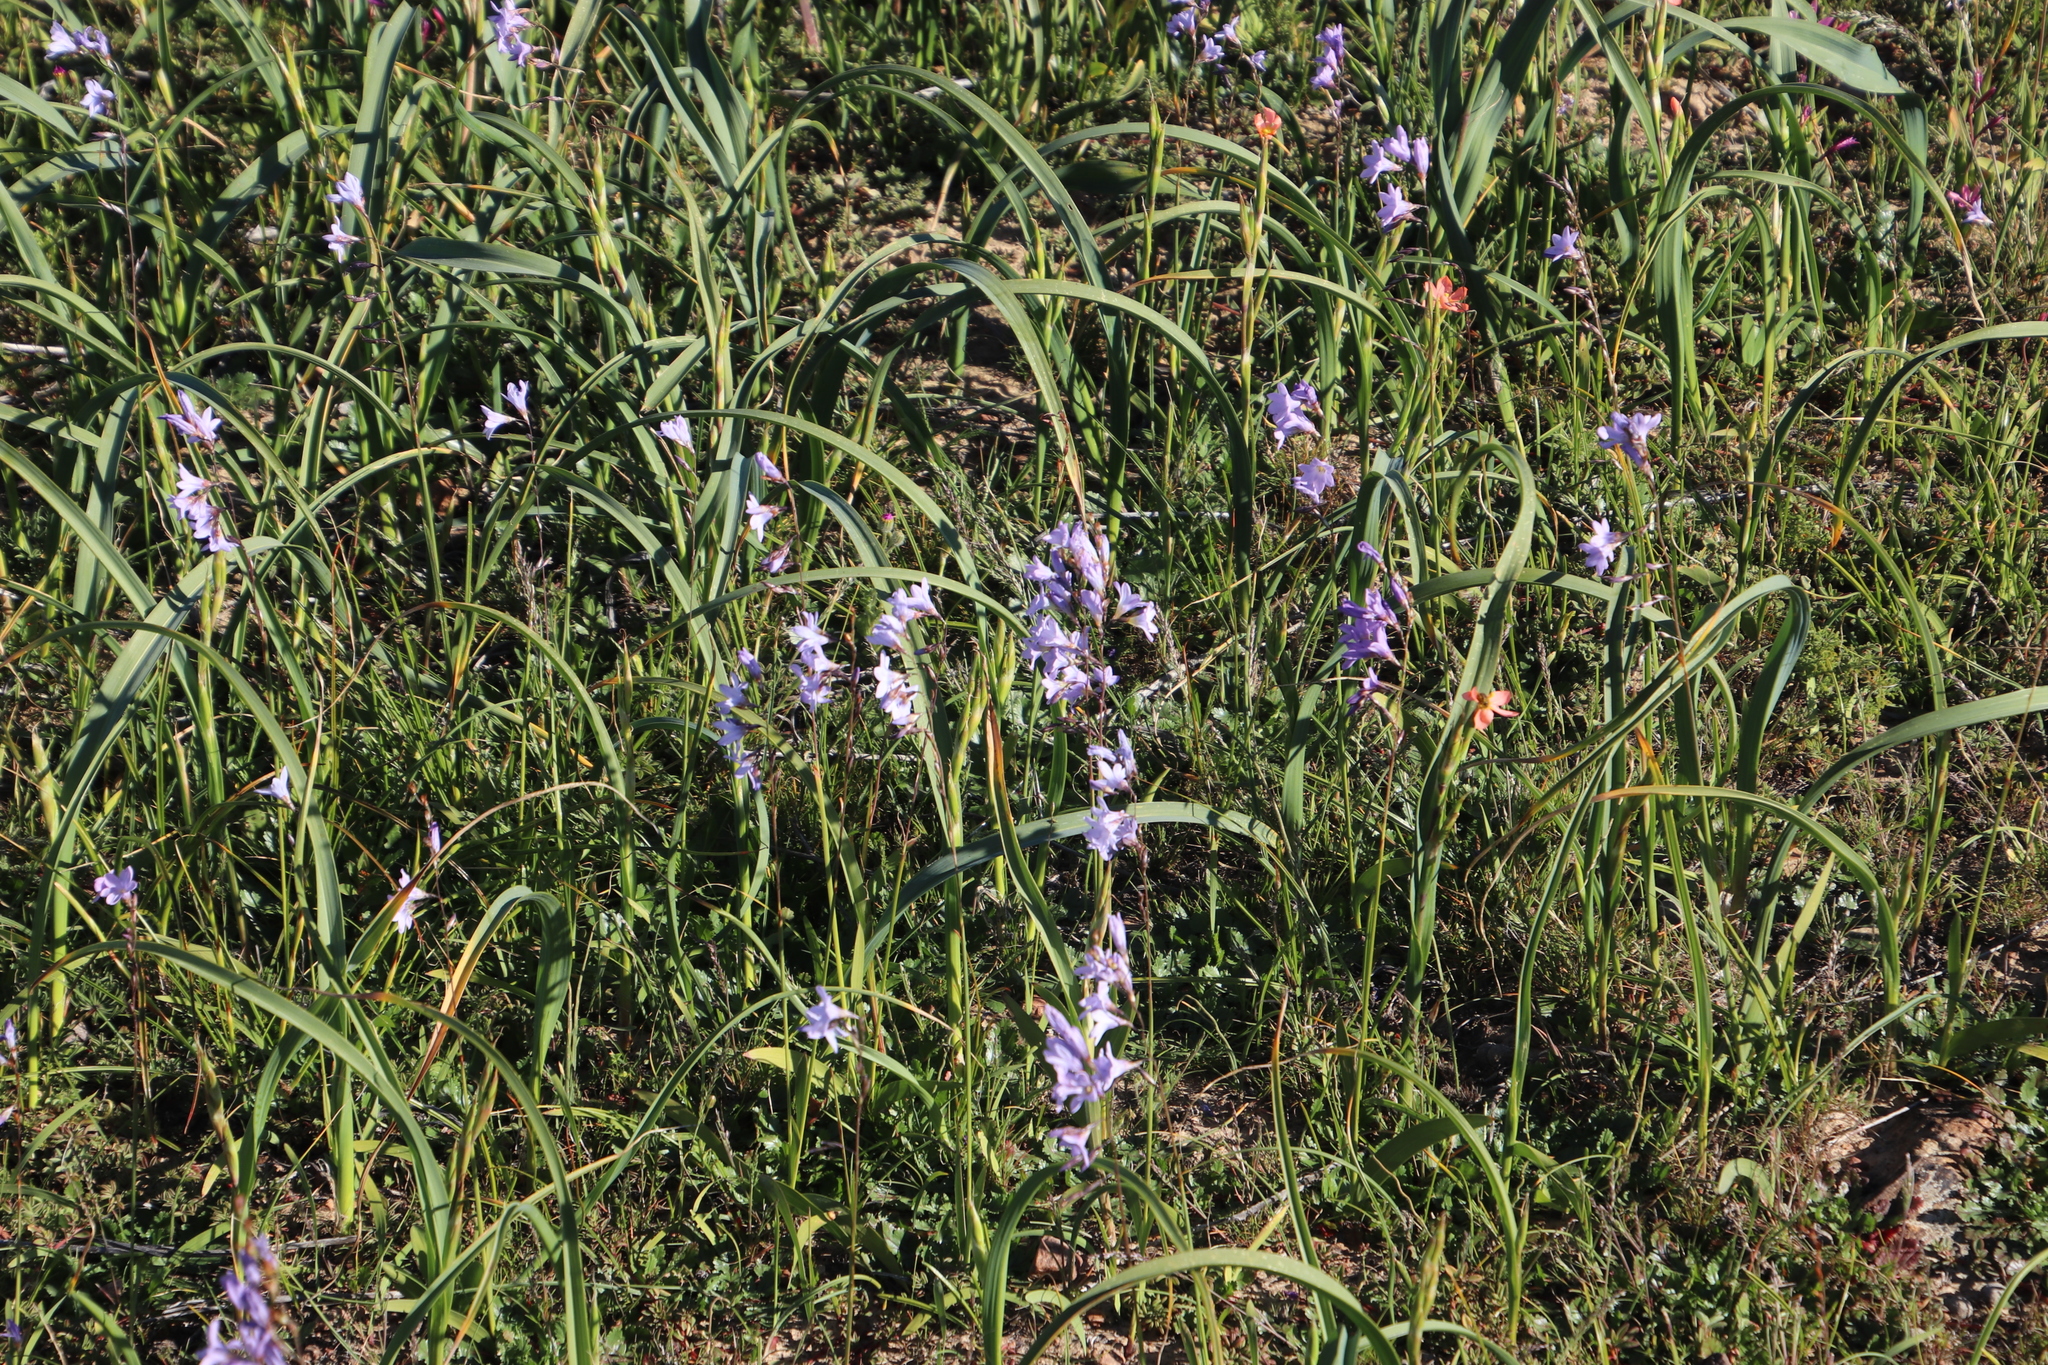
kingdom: Plantae
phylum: Tracheophyta
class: Liliopsida
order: Asparagales
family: Iridaceae
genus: Ixia
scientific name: Ixia rapunculoides
